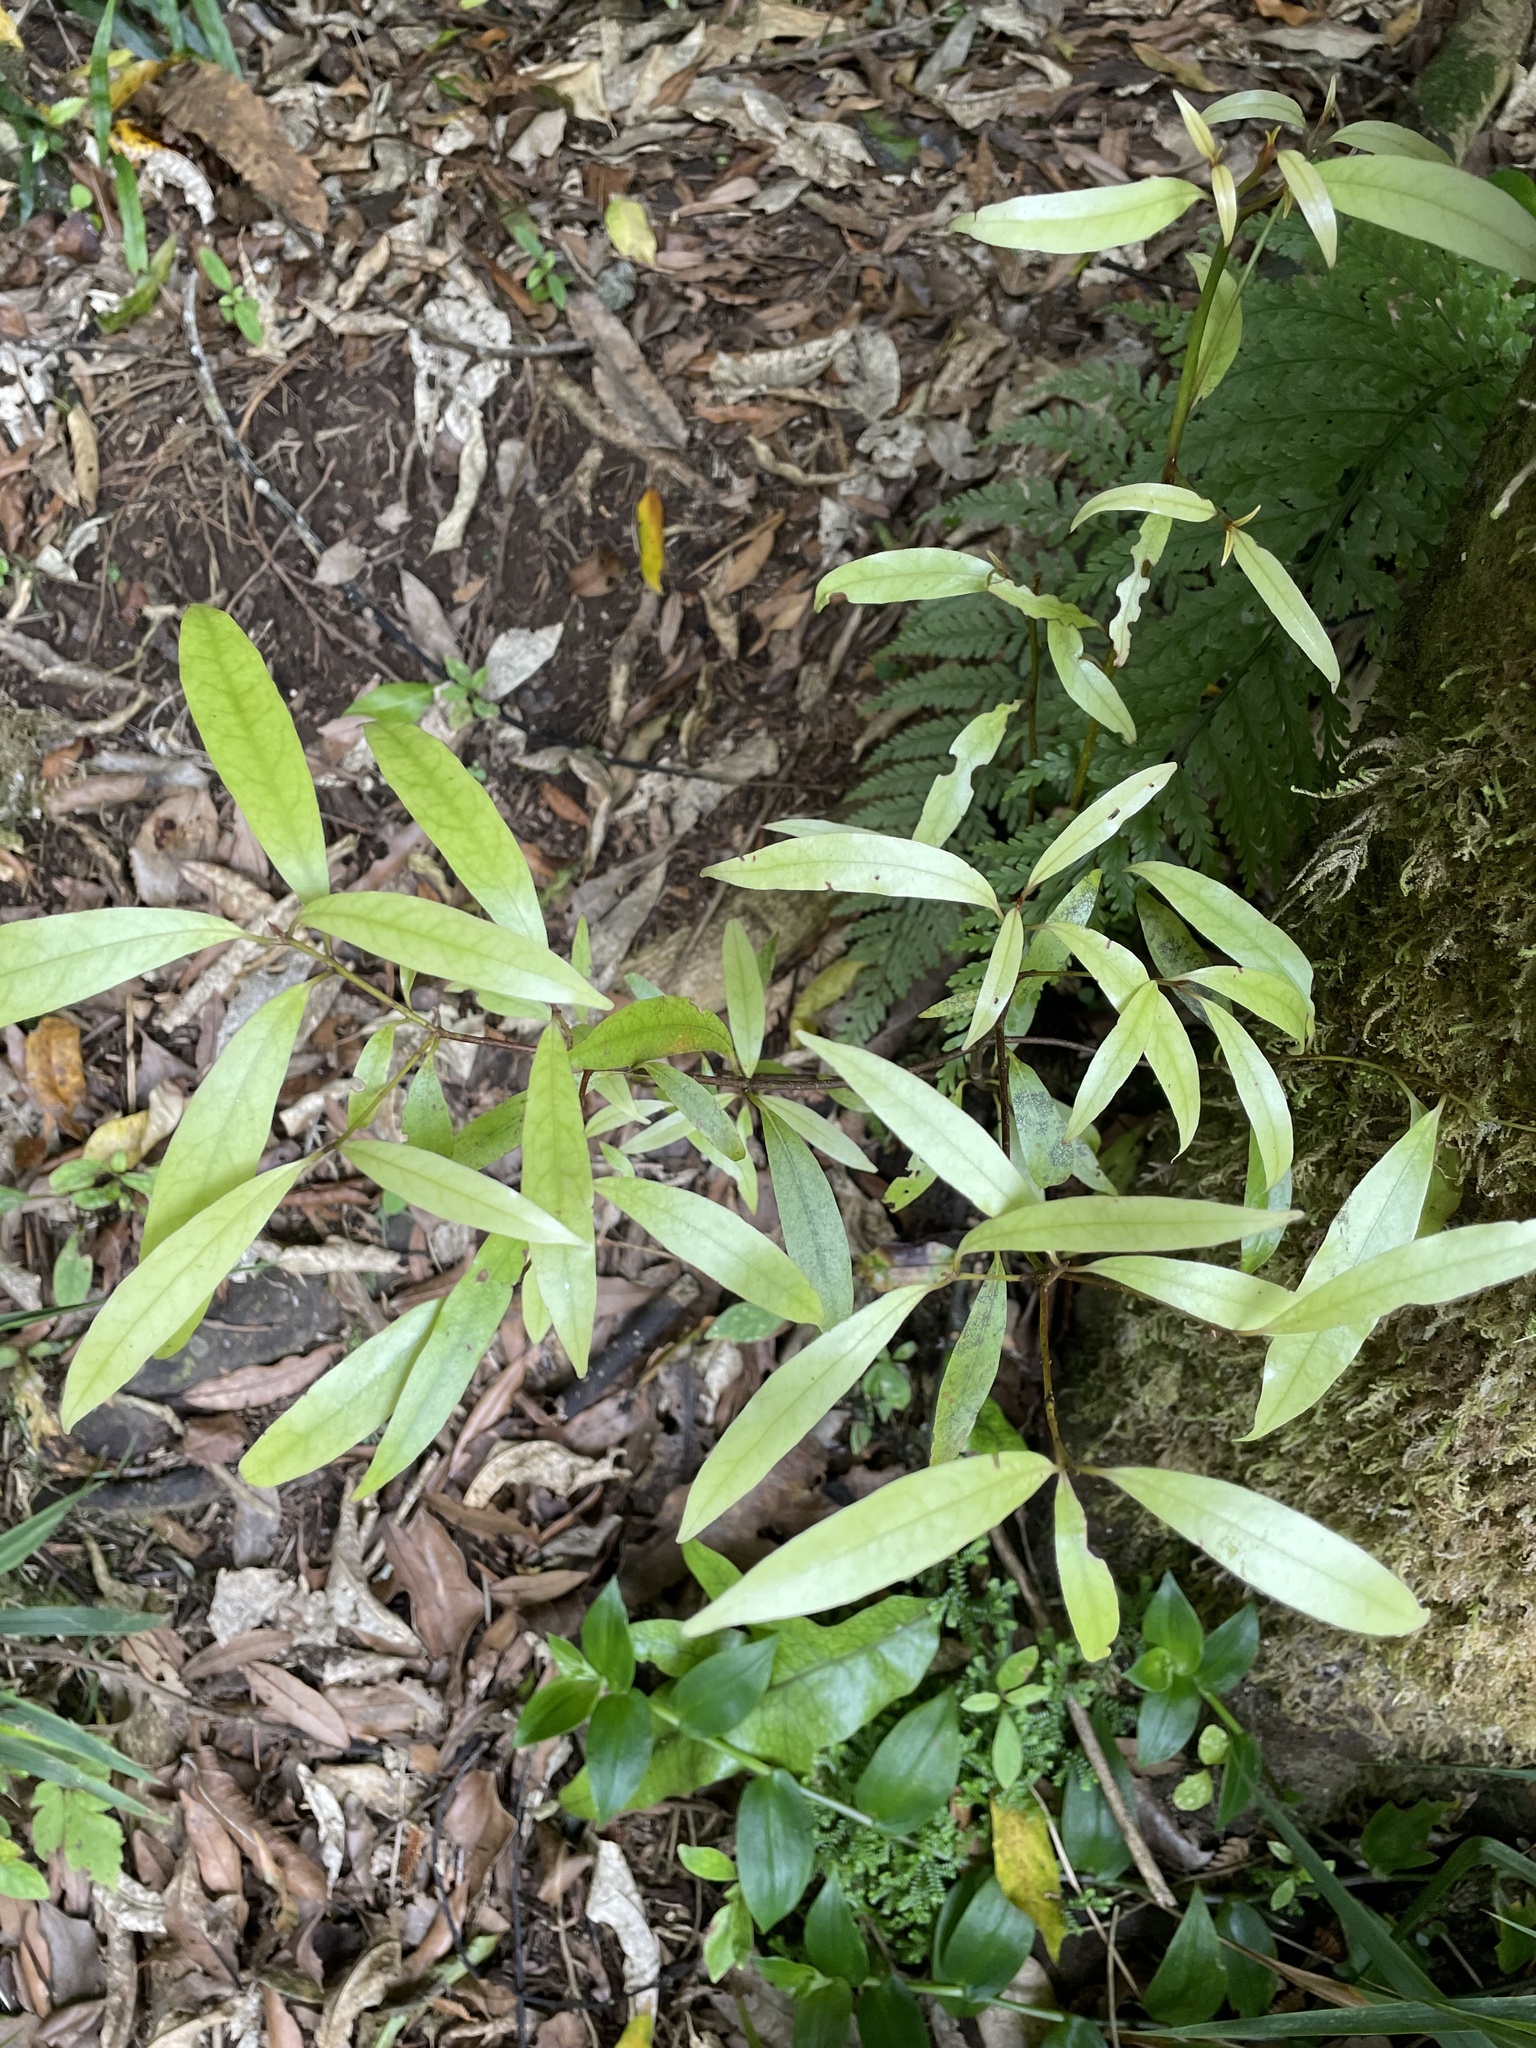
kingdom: Plantae
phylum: Tracheophyta
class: Magnoliopsida
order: Laurales
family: Lauraceae
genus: Beilschmiedia
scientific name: Beilschmiedia tawa
